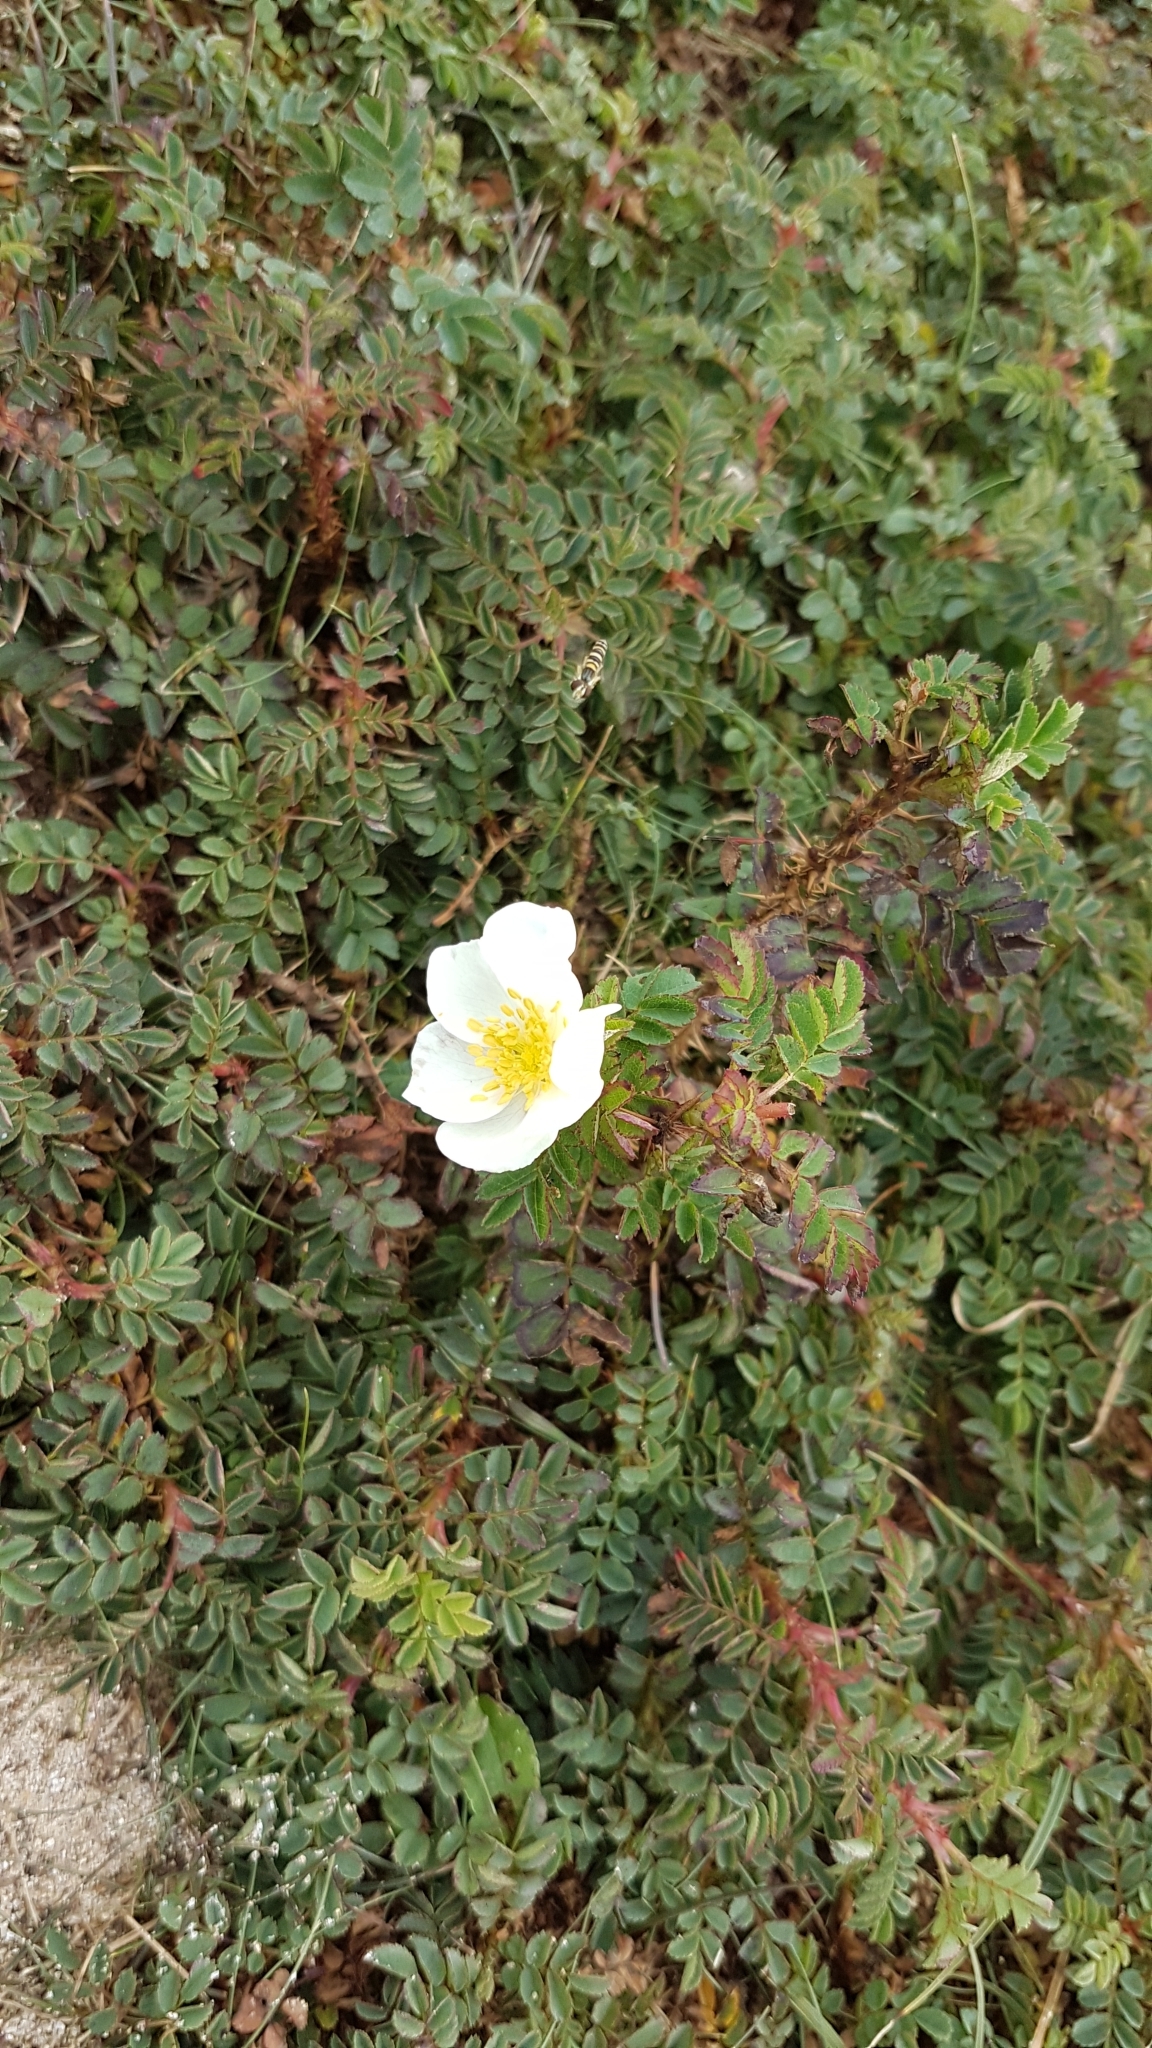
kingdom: Plantae
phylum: Tracheophyta
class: Magnoliopsida
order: Rosales
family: Rosaceae
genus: Rosa
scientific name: Rosa spinosissima
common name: Burnet rose
